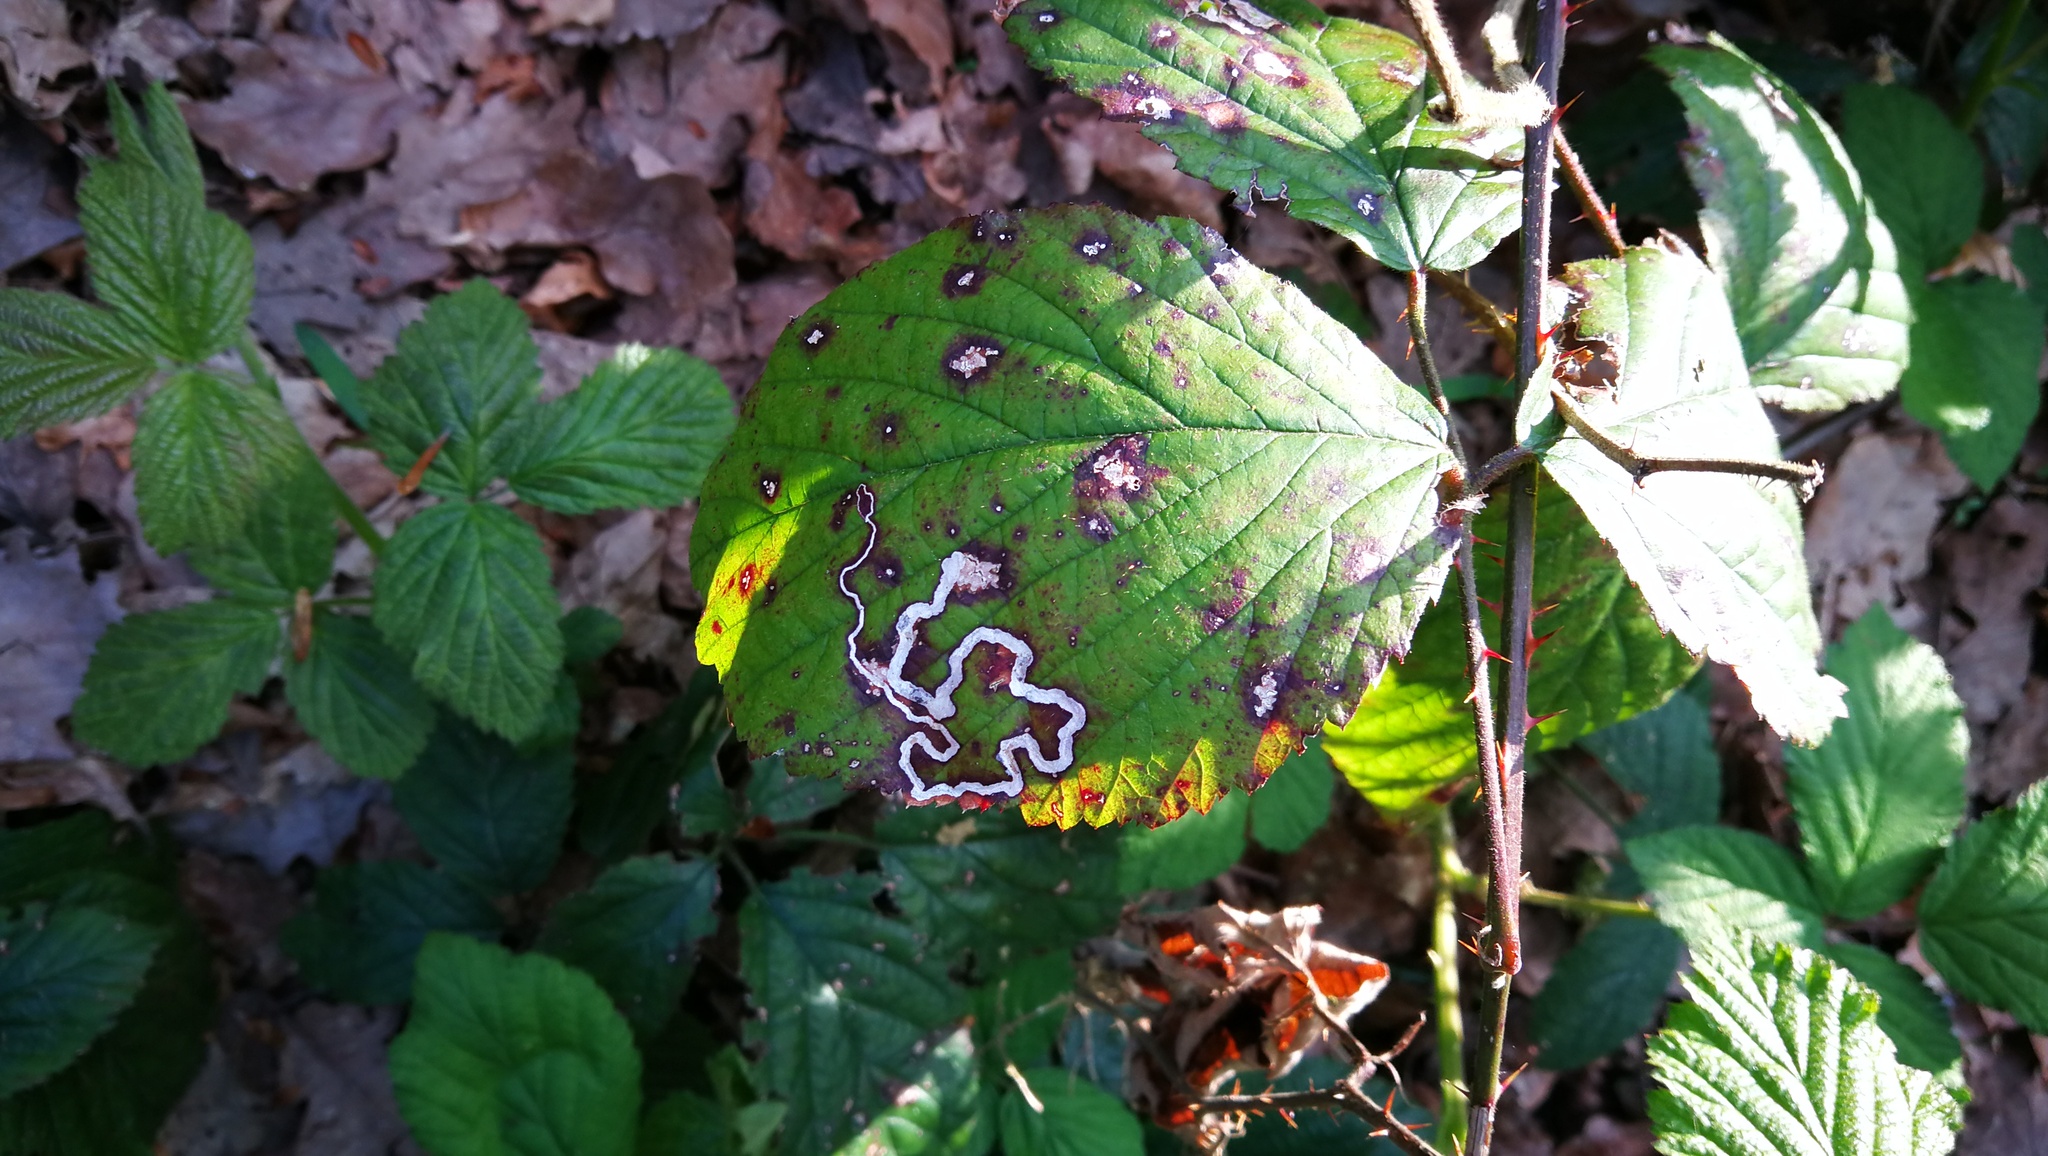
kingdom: Animalia
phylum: Arthropoda
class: Insecta
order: Lepidoptera
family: Nepticulidae
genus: Stigmella
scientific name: Stigmella aurella
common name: Golden pigmy
